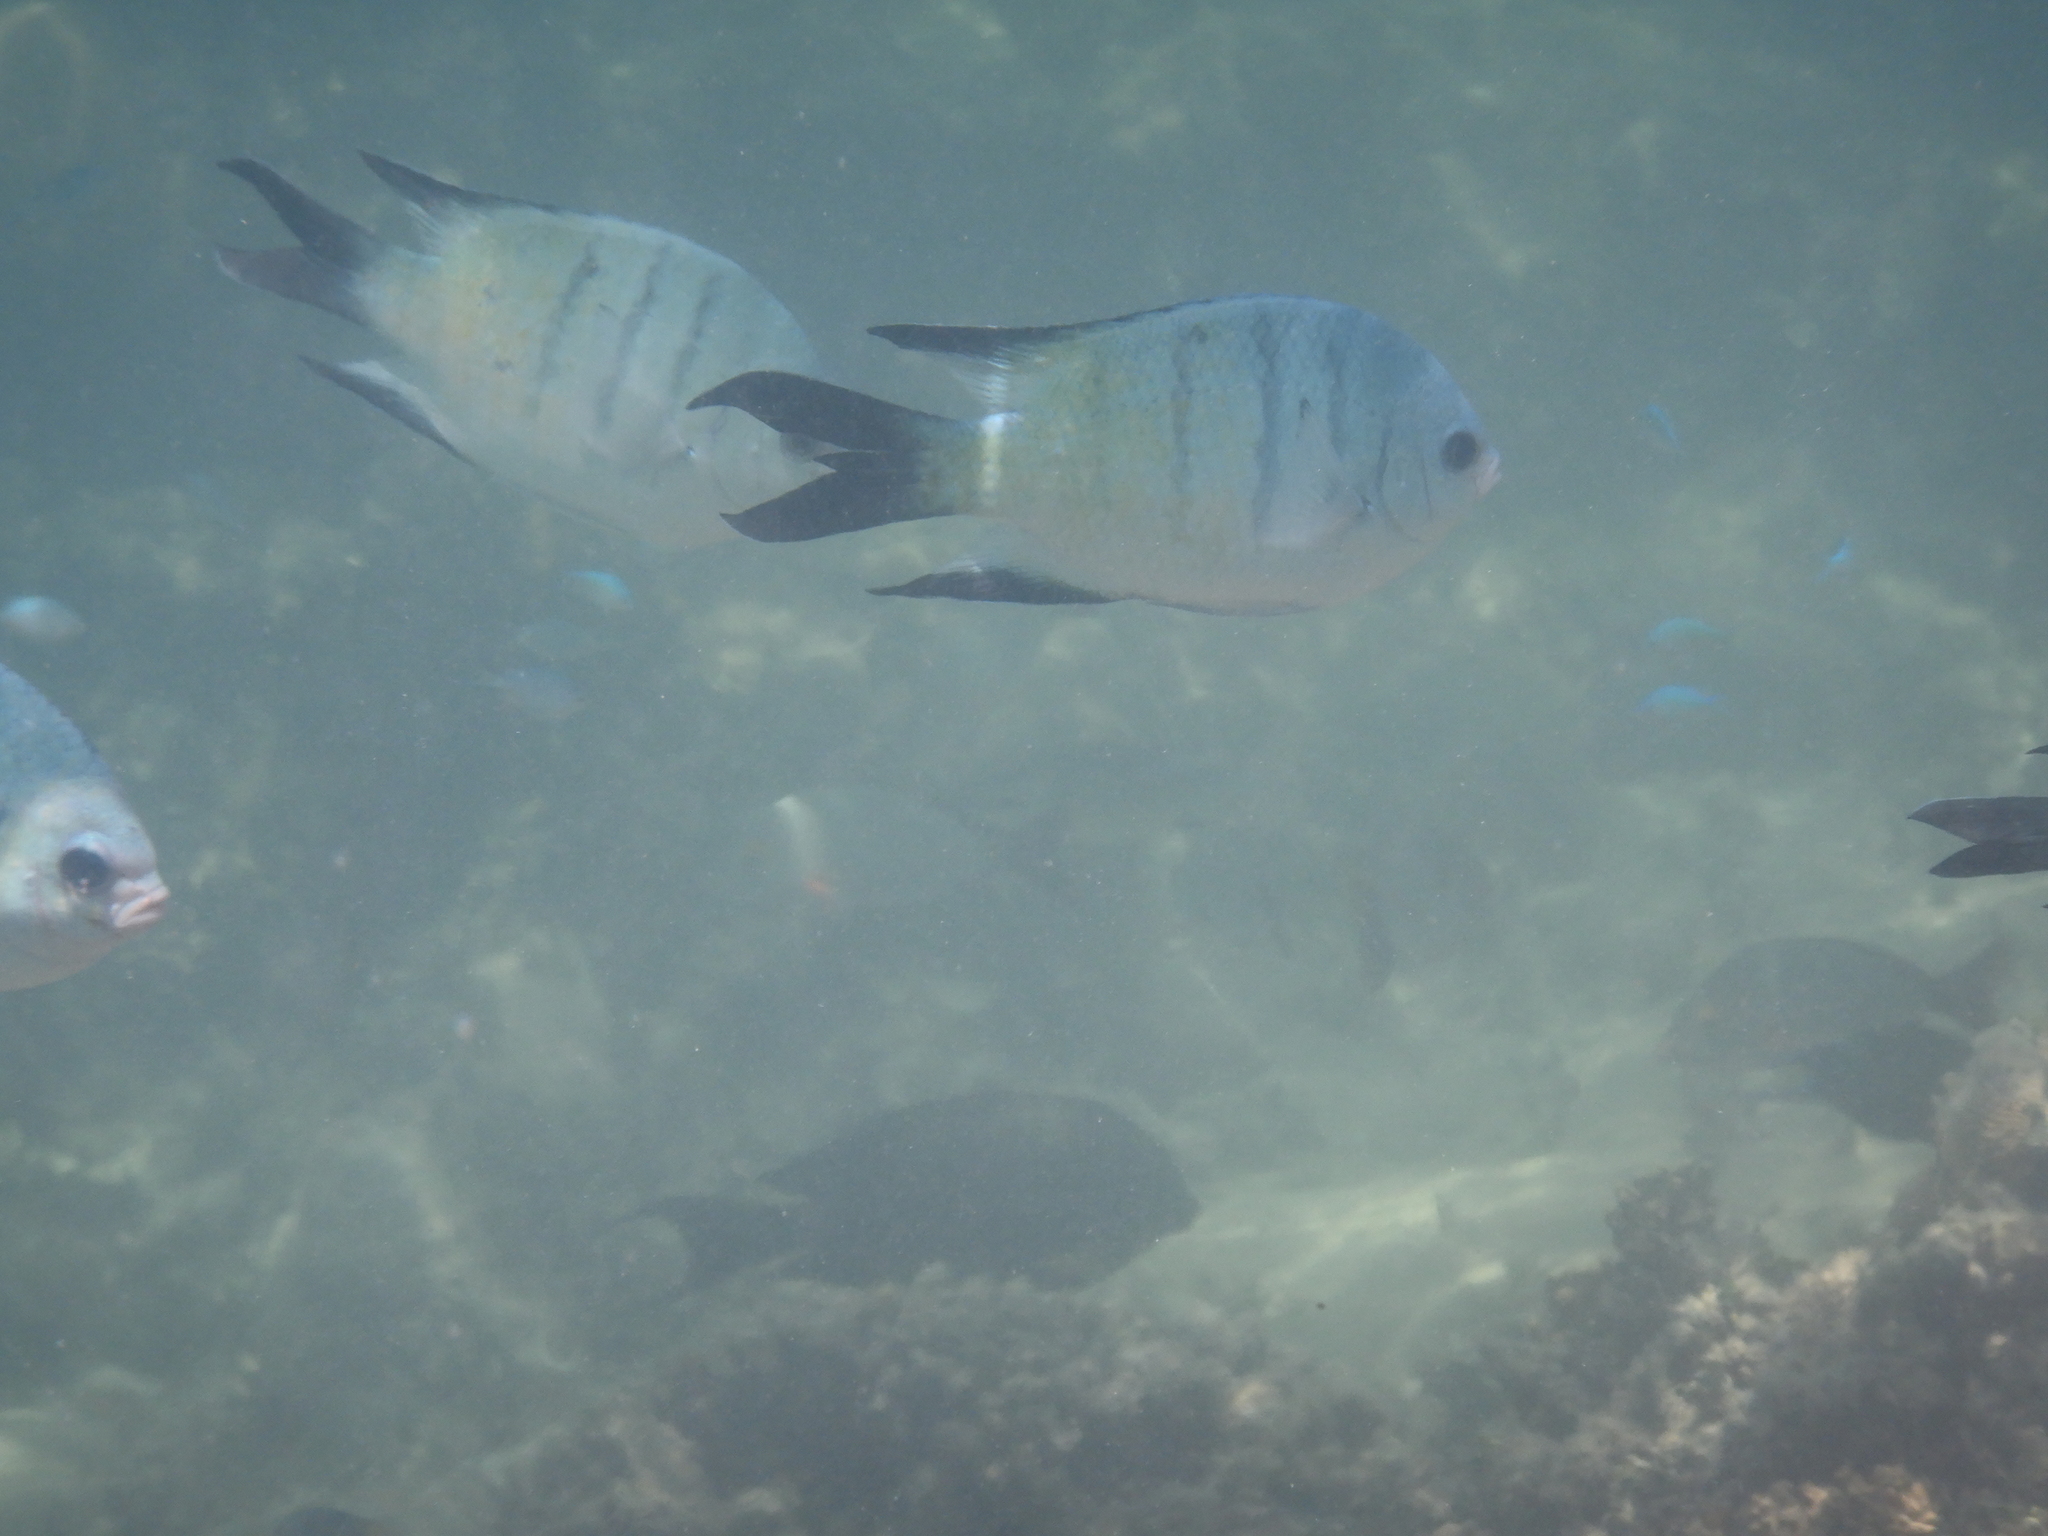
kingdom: Animalia
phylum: Chordata
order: Perciformes
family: Pomacentridae
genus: Abudefduf
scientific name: Abudefduf whitleyi
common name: Whitley's seargent
